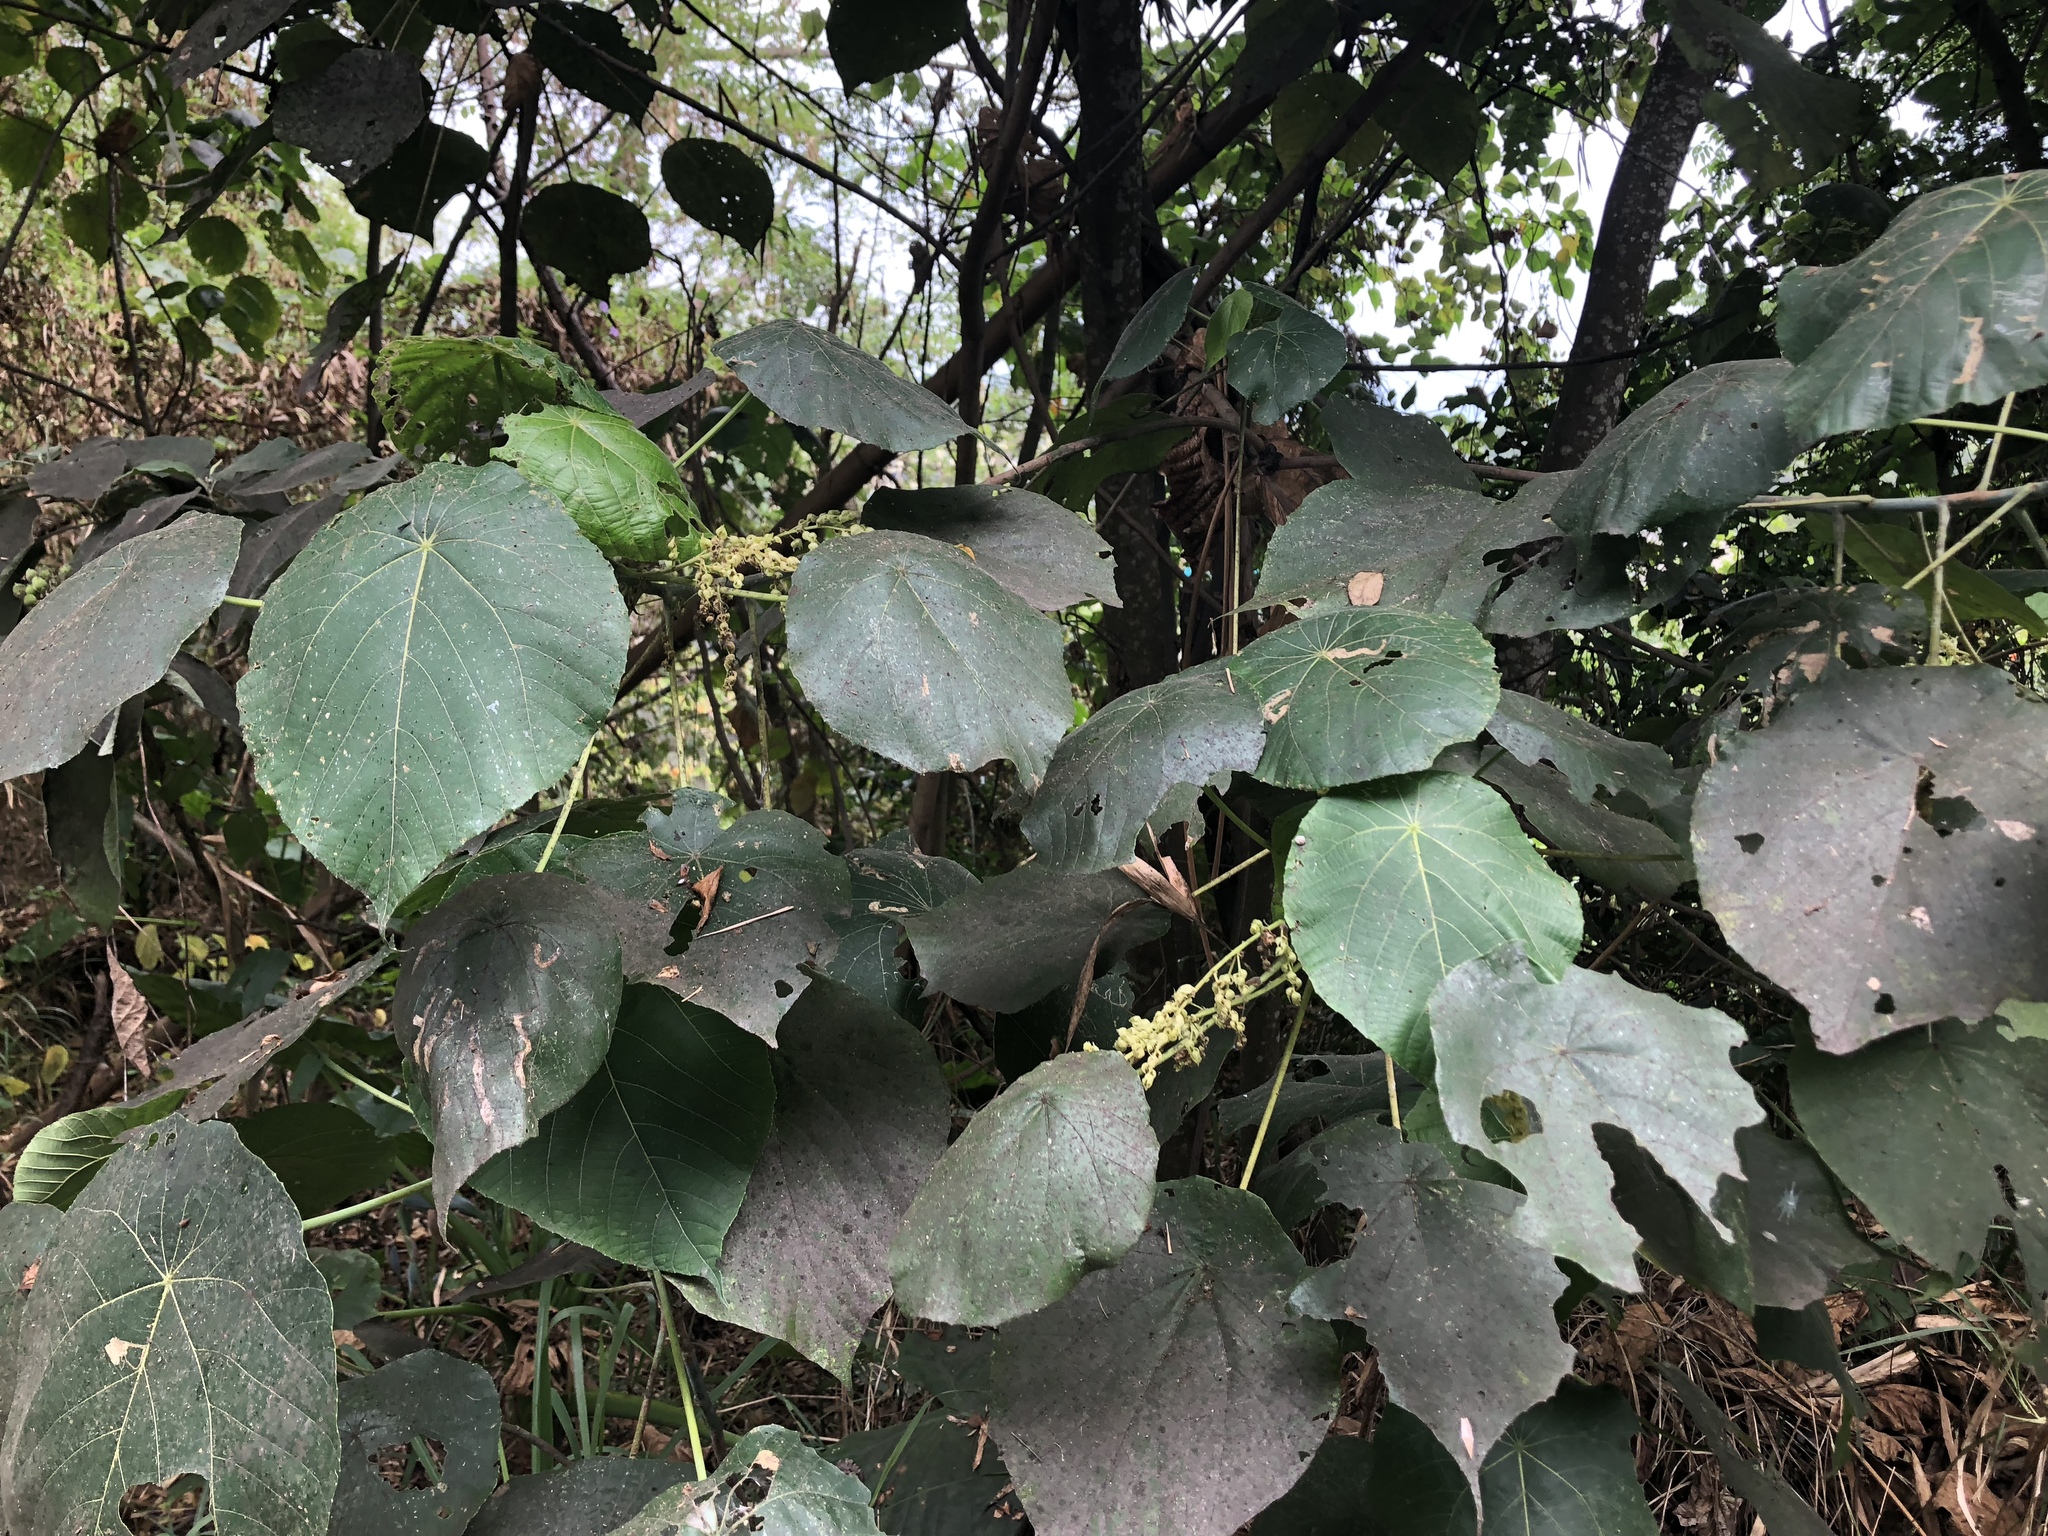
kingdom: Plantae
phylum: Tracheophyta
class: Magnoliopsida
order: Malpighiales
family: Euphorbiaceae
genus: Macaranga
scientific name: Macaranga tanarius
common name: Parasol leaf tree
